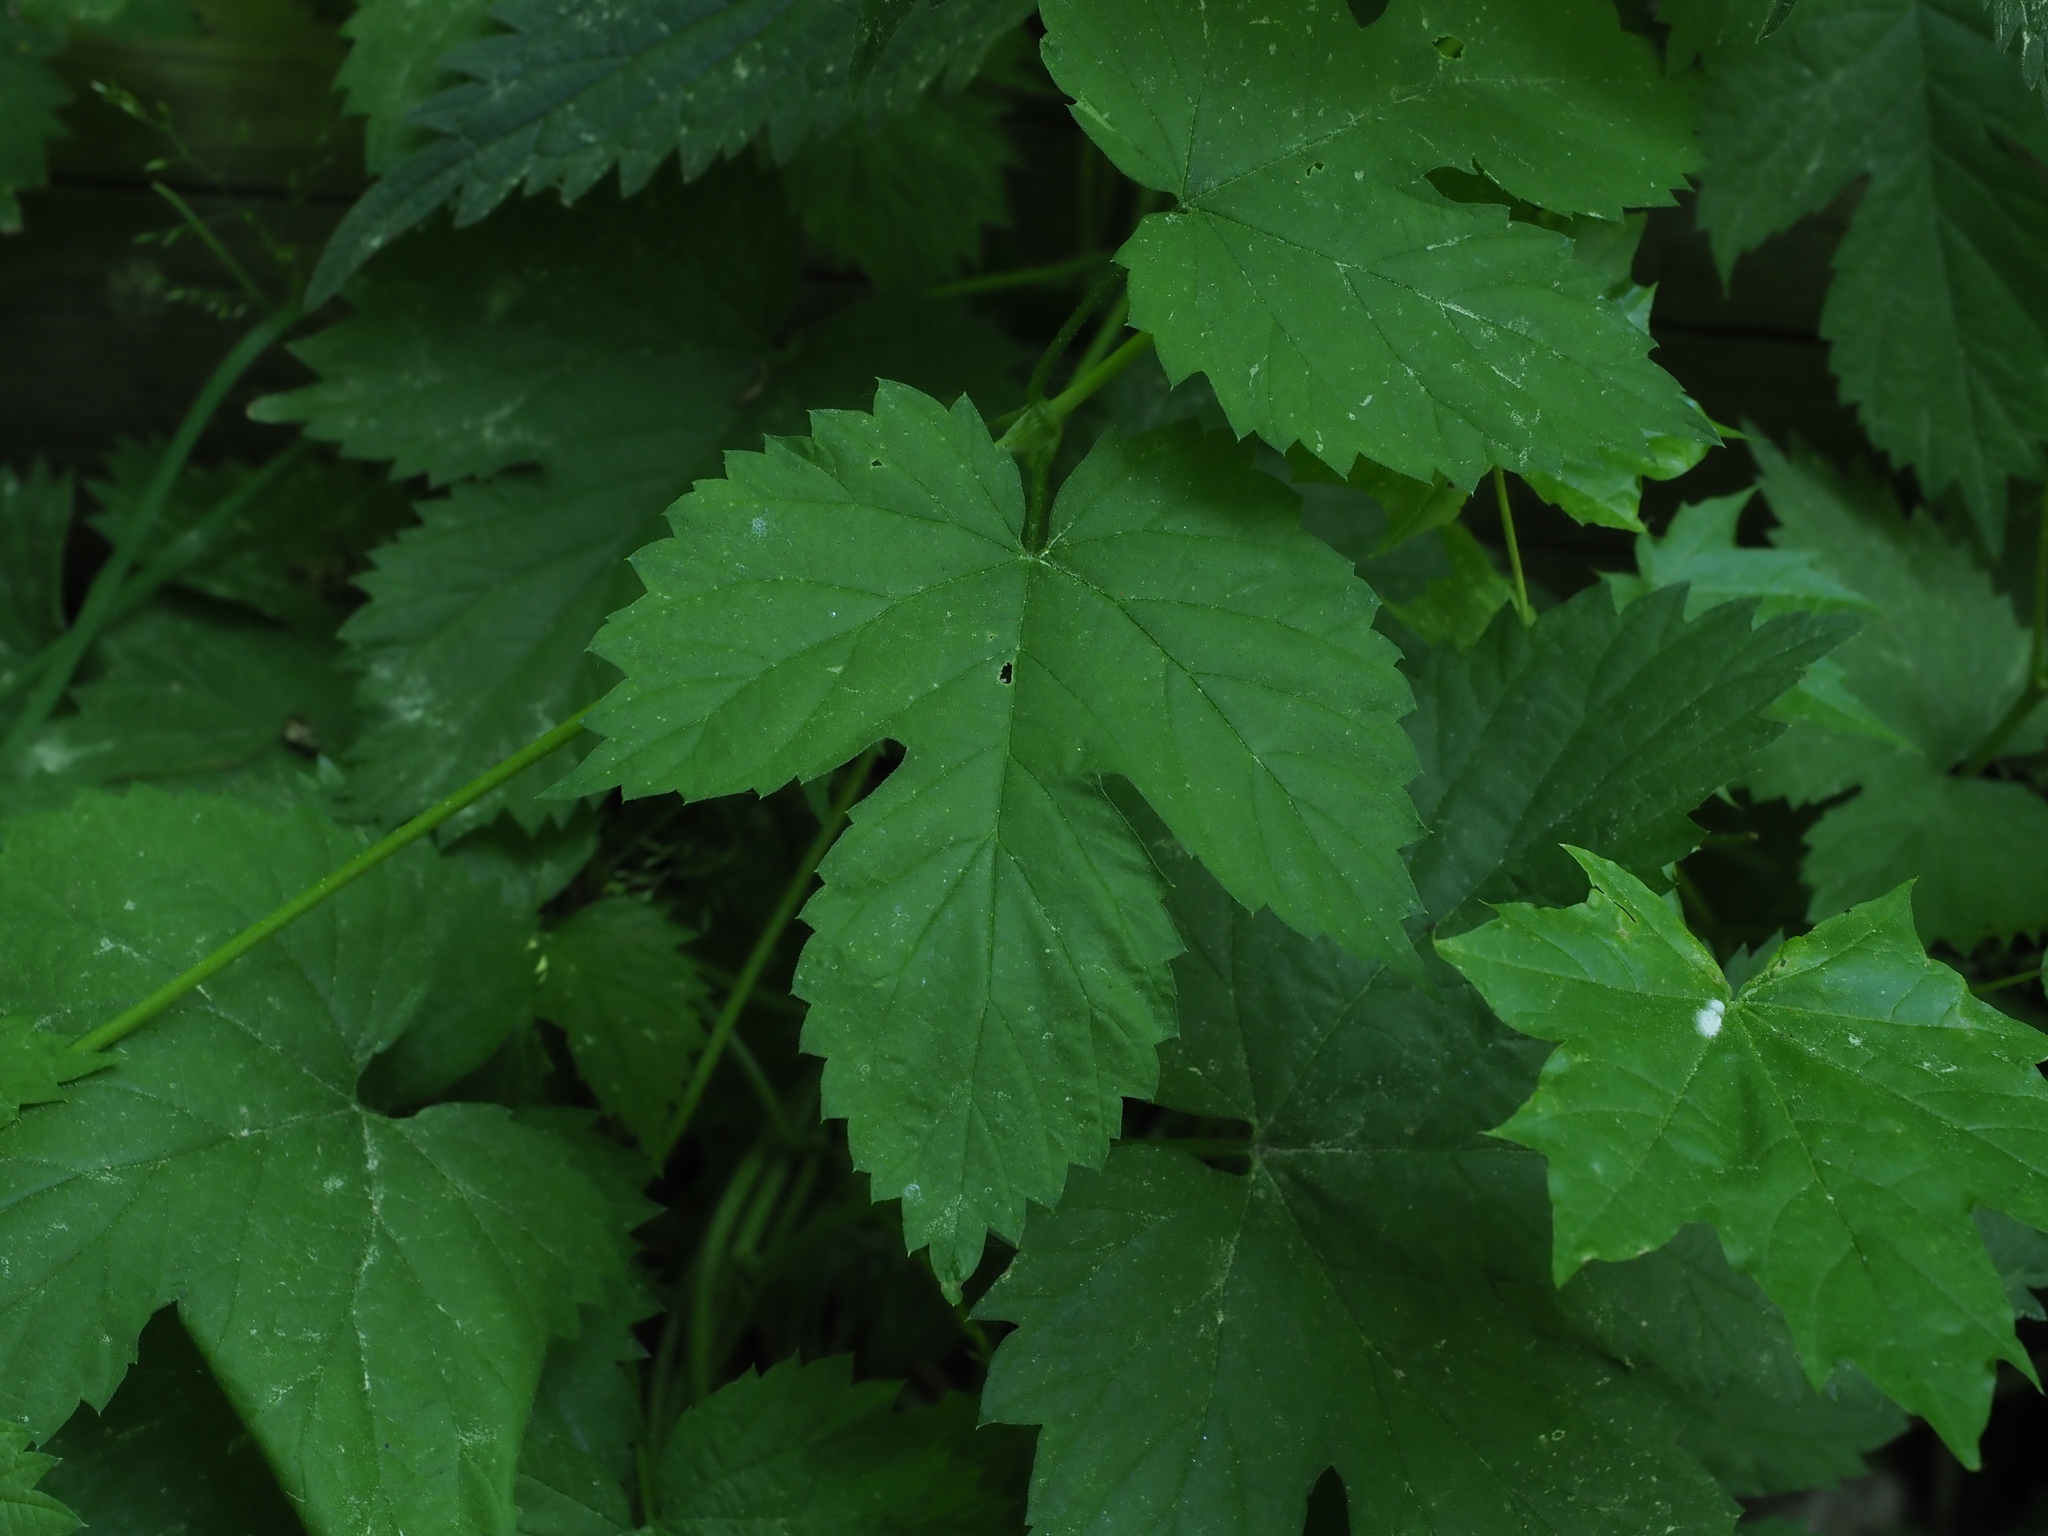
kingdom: Plantae
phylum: Tracheophyta
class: Magnoliopsida
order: Rosales
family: Cannabaceae
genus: Humulus
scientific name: Humulus lupulus
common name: Hop
